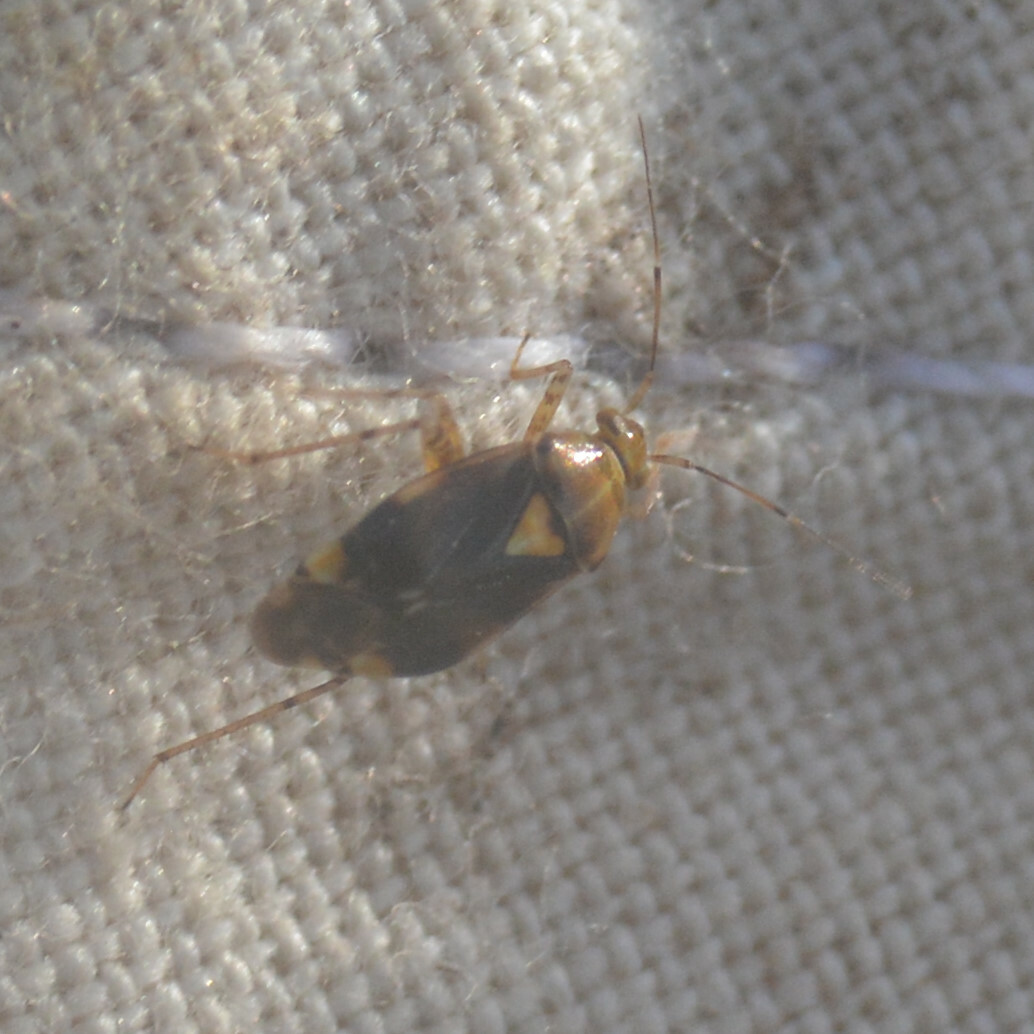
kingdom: Animalia
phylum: Arthropoda
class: Insecta
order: Hemiptera
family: Miridae
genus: Liocoris
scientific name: Liocoris tripustulatus
